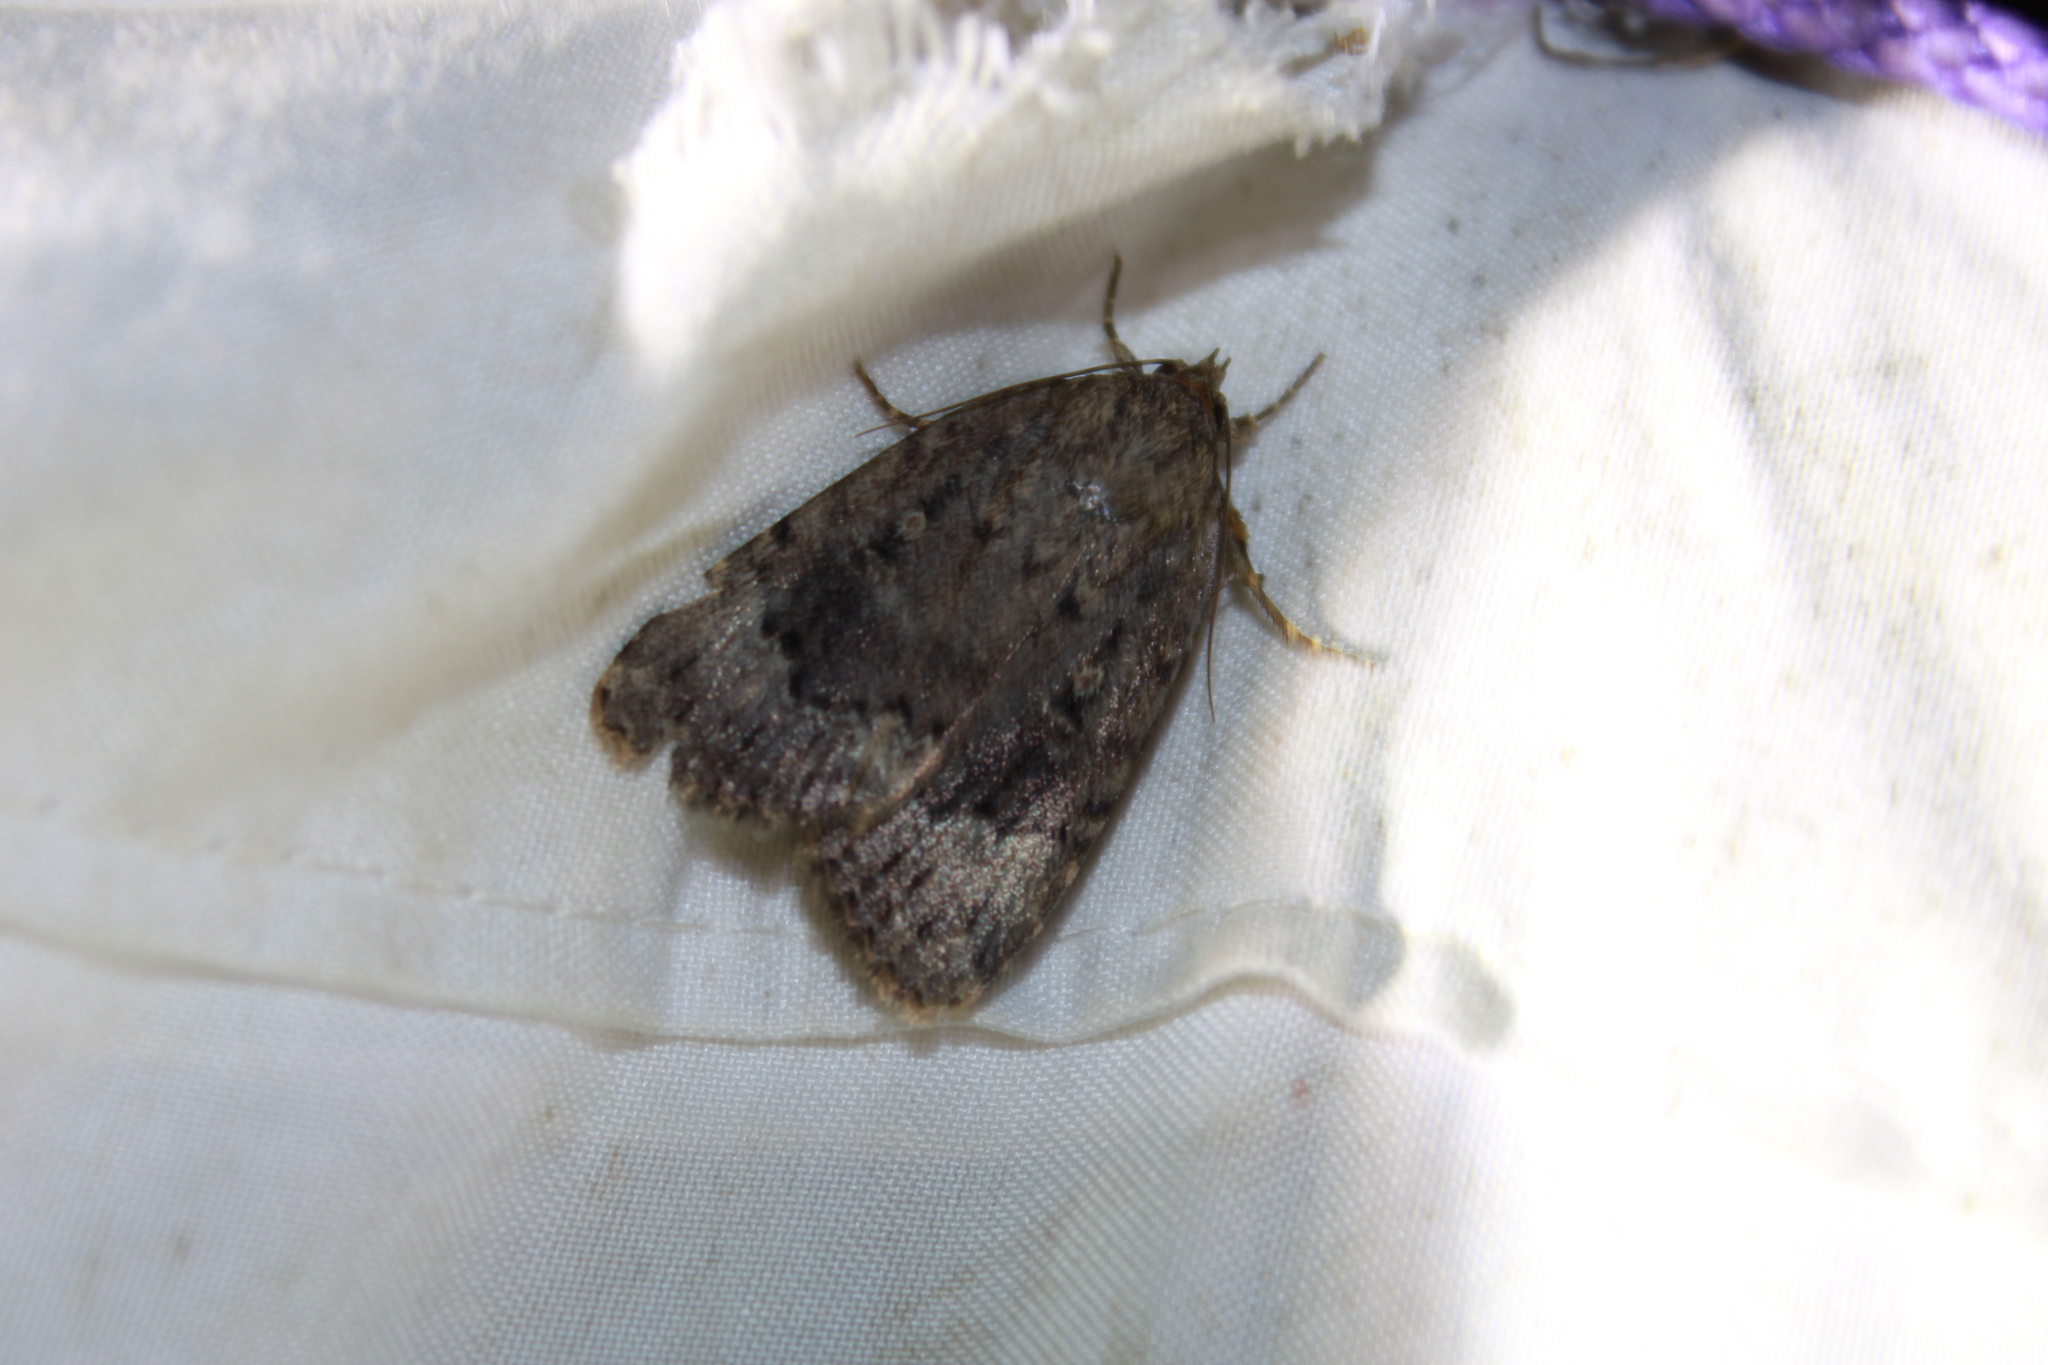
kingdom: Animalia
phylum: Arthropoda
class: Insecta
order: Lepidoptera
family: Noctuidae
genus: Amphipyra
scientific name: Amphipyra pyramidoides
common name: American copper underwing
